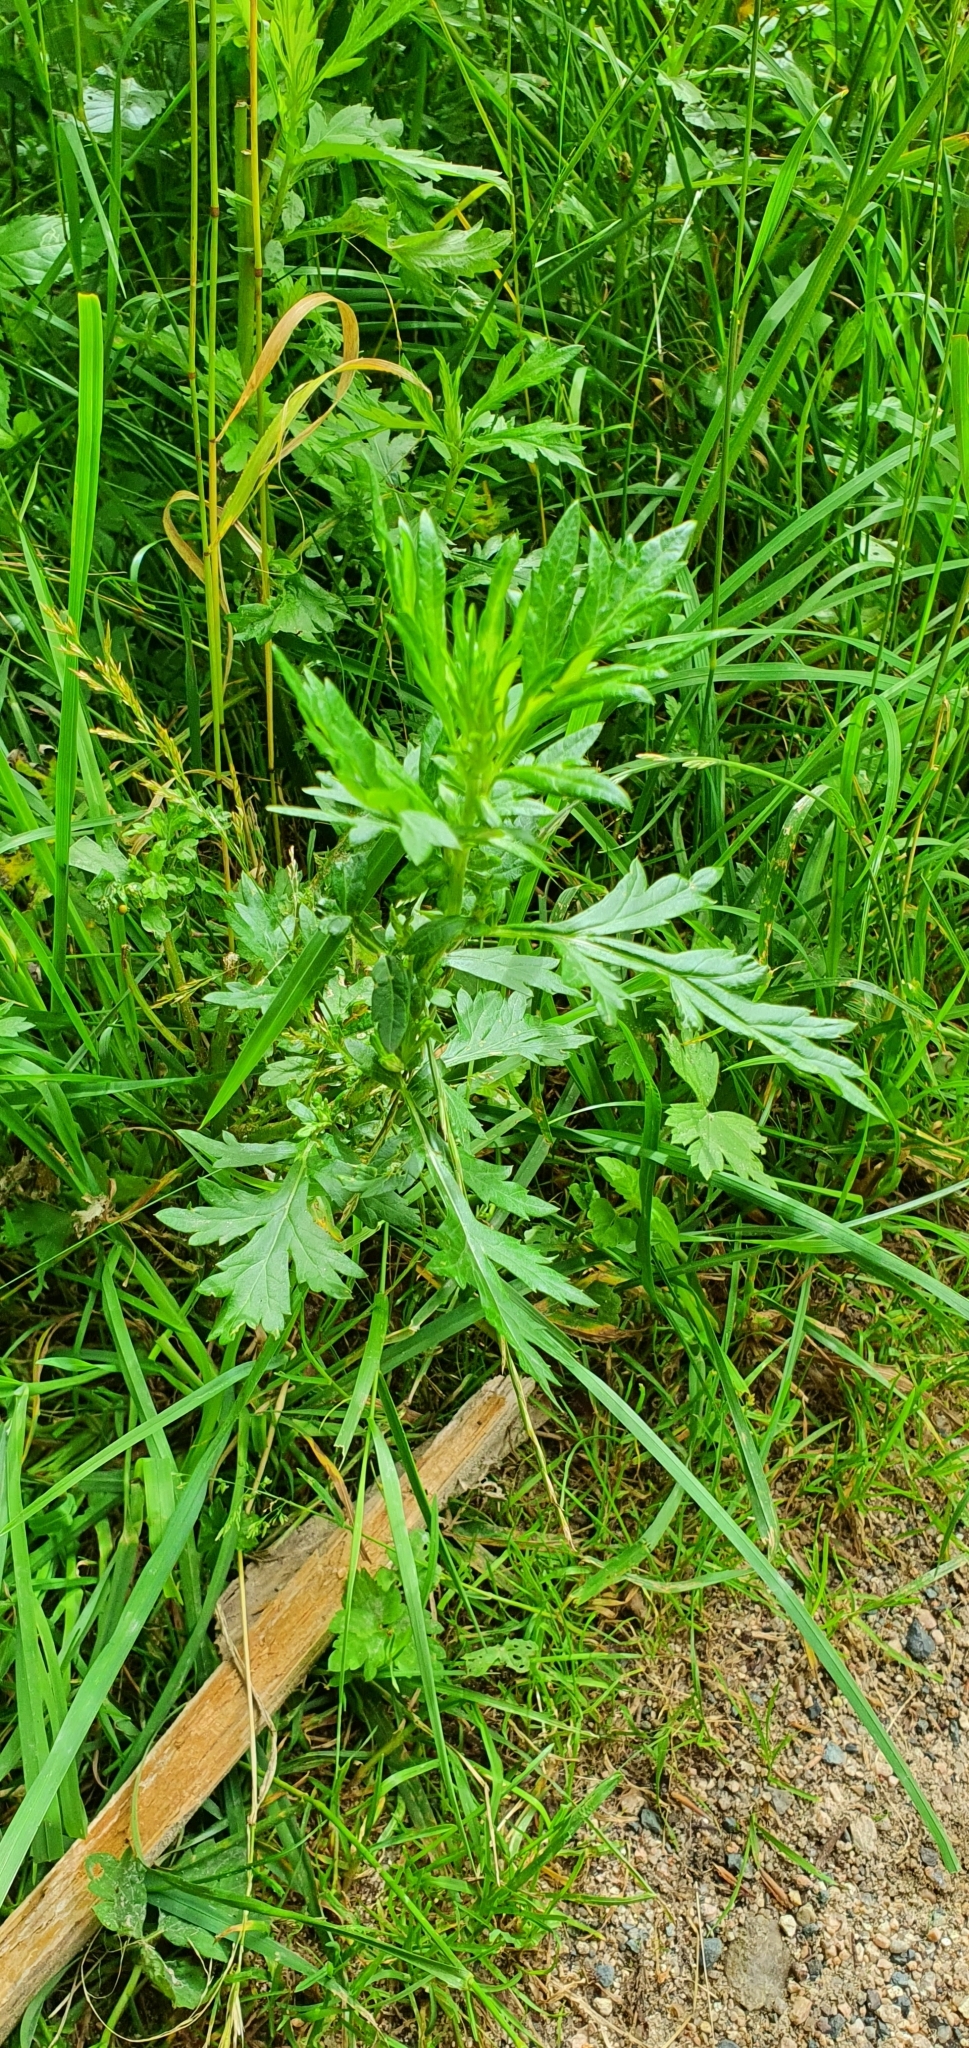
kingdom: Plantae
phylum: Tracheophyta
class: Magnoliopsida
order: Asterales
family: Asteraceae
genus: Artemisia
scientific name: Artemisia vulgaris
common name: Mugwort
